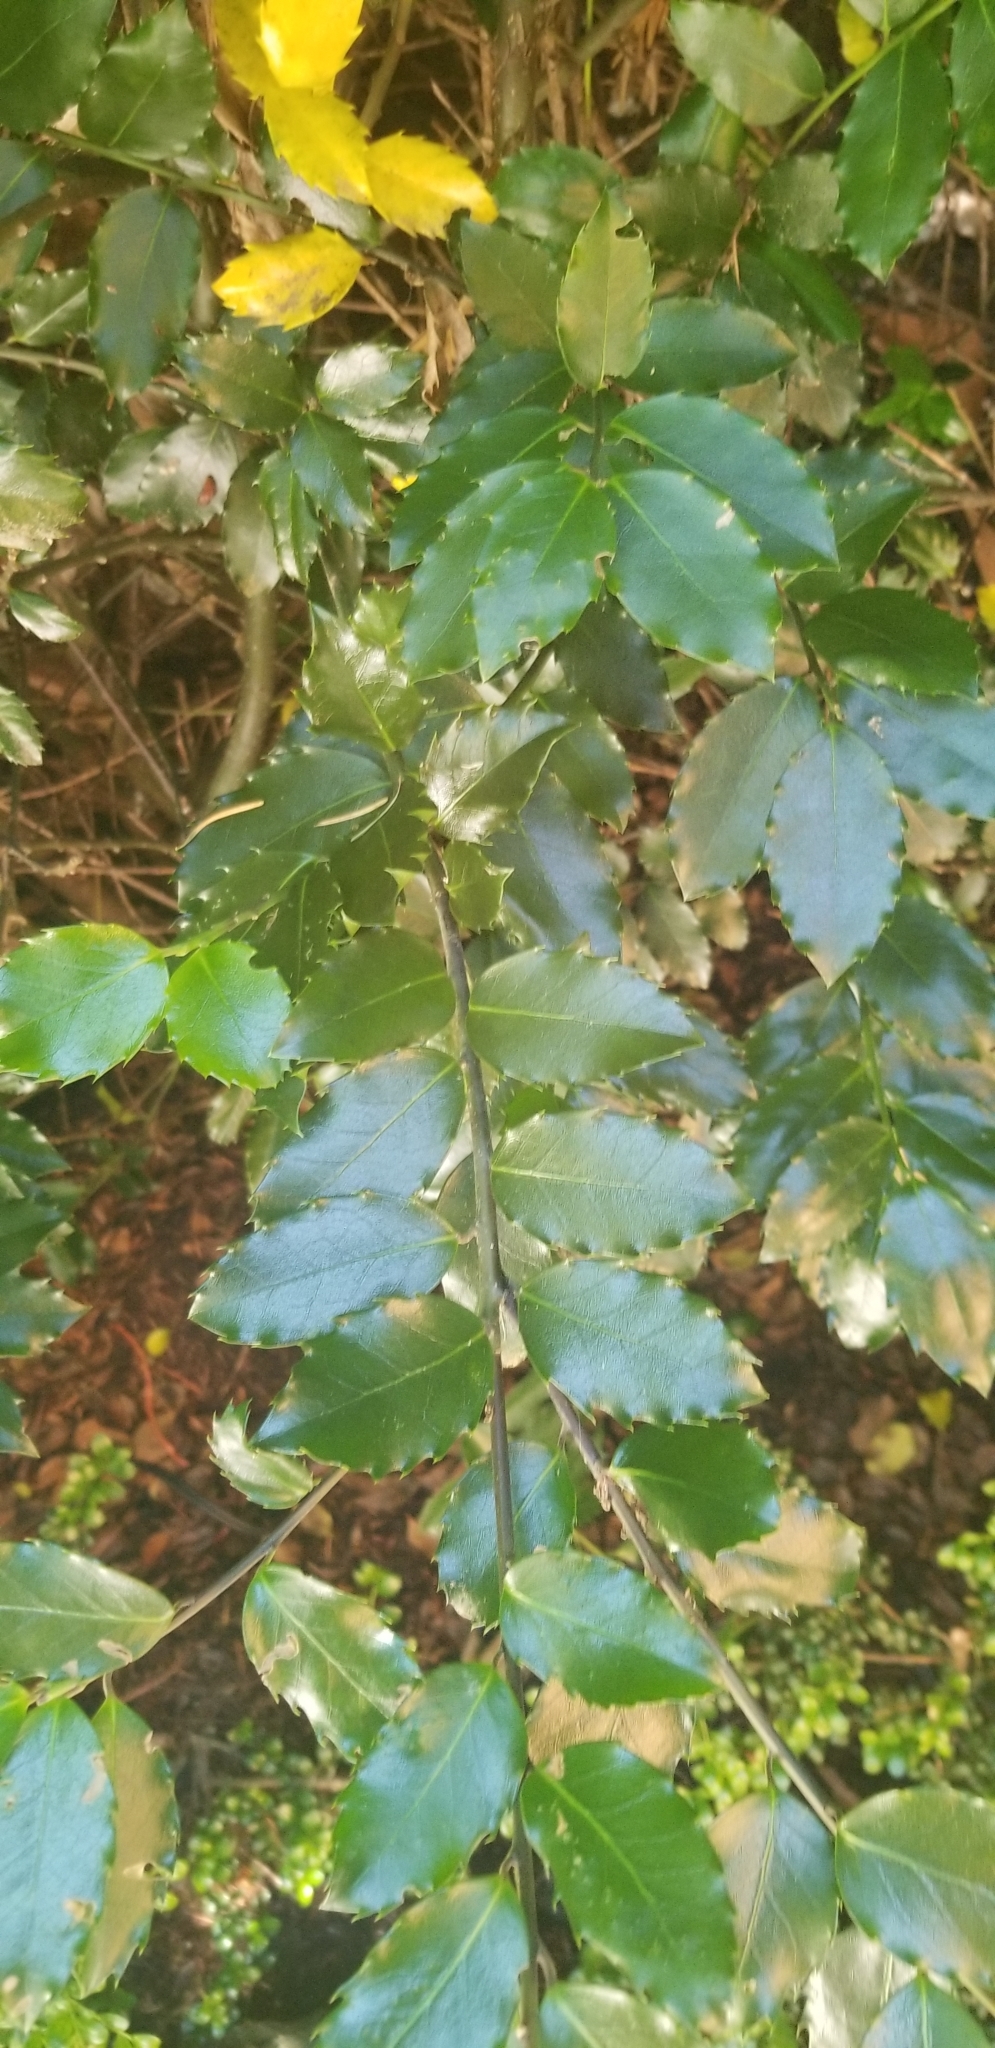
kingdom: Plantae
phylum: Tracheophyta
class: Magnoliopsida
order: Aquifoliales
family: Aquifoliaceae
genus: Ilex
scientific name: Ilex aquifolium
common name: English holly
